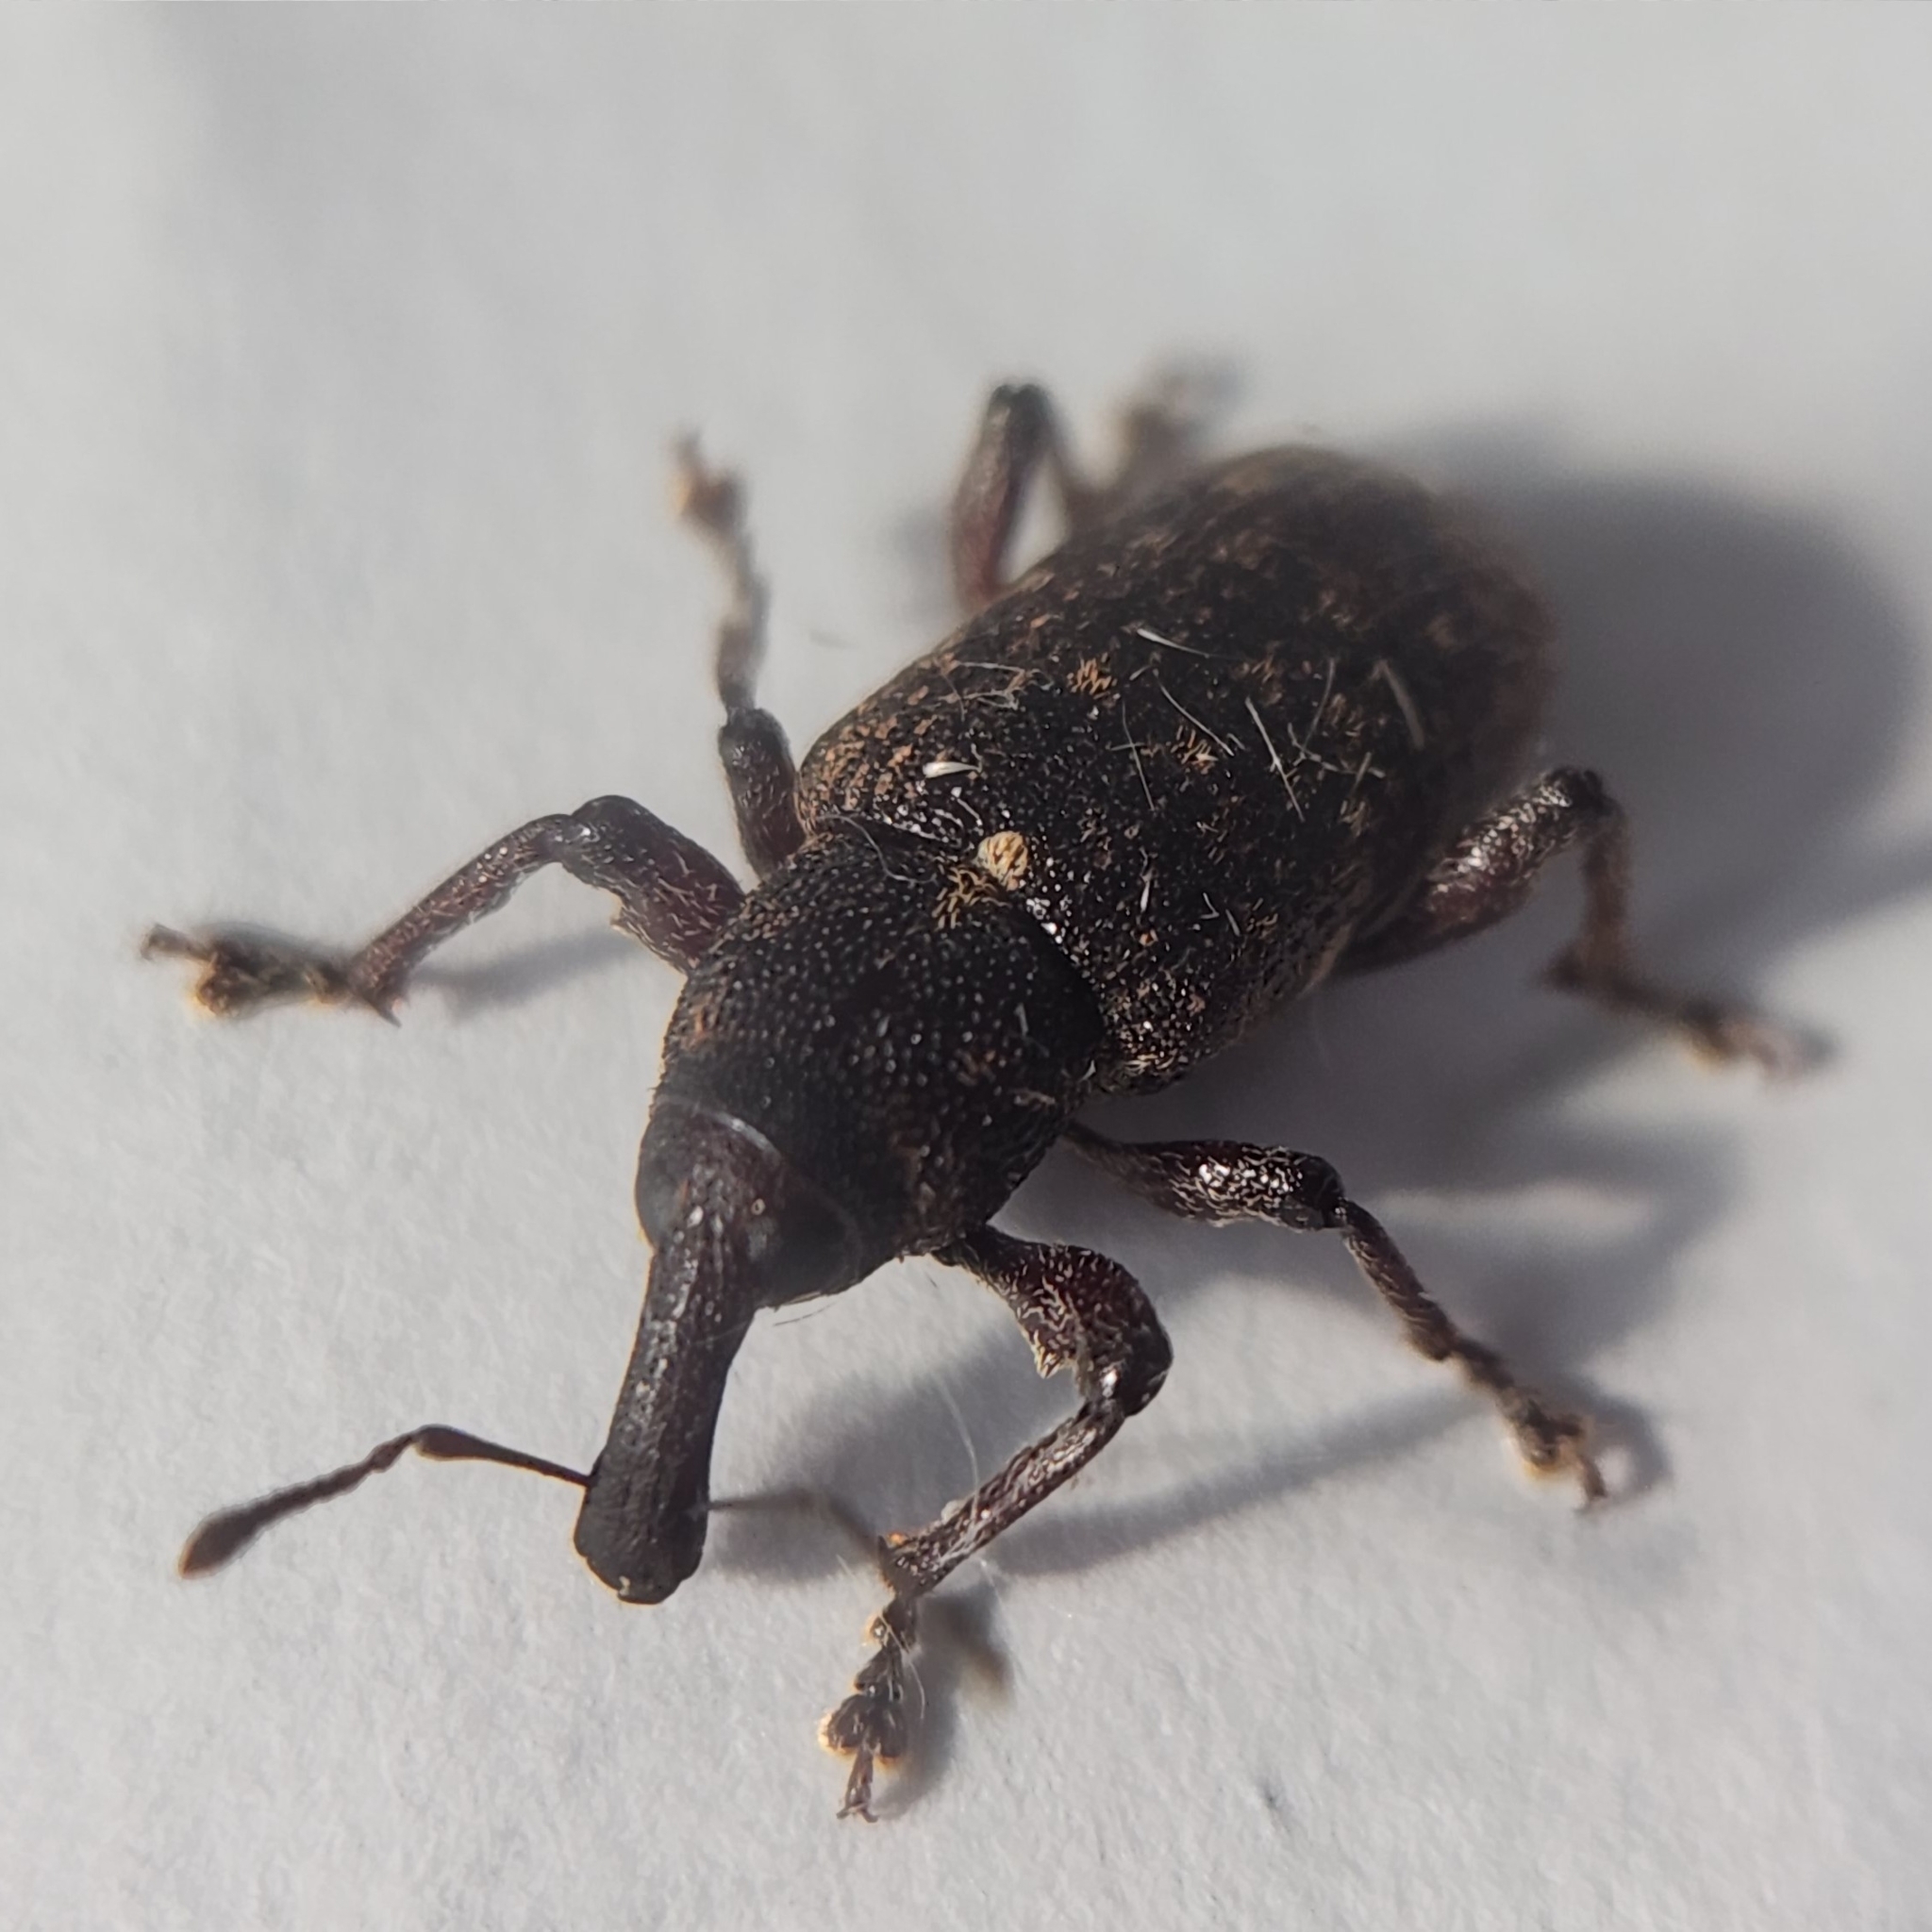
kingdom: Animalia
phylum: Arthropoda
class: Insecta
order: Coleoptera
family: Curculionidae
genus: Pachylobius
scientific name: Pachylobius picivorus
